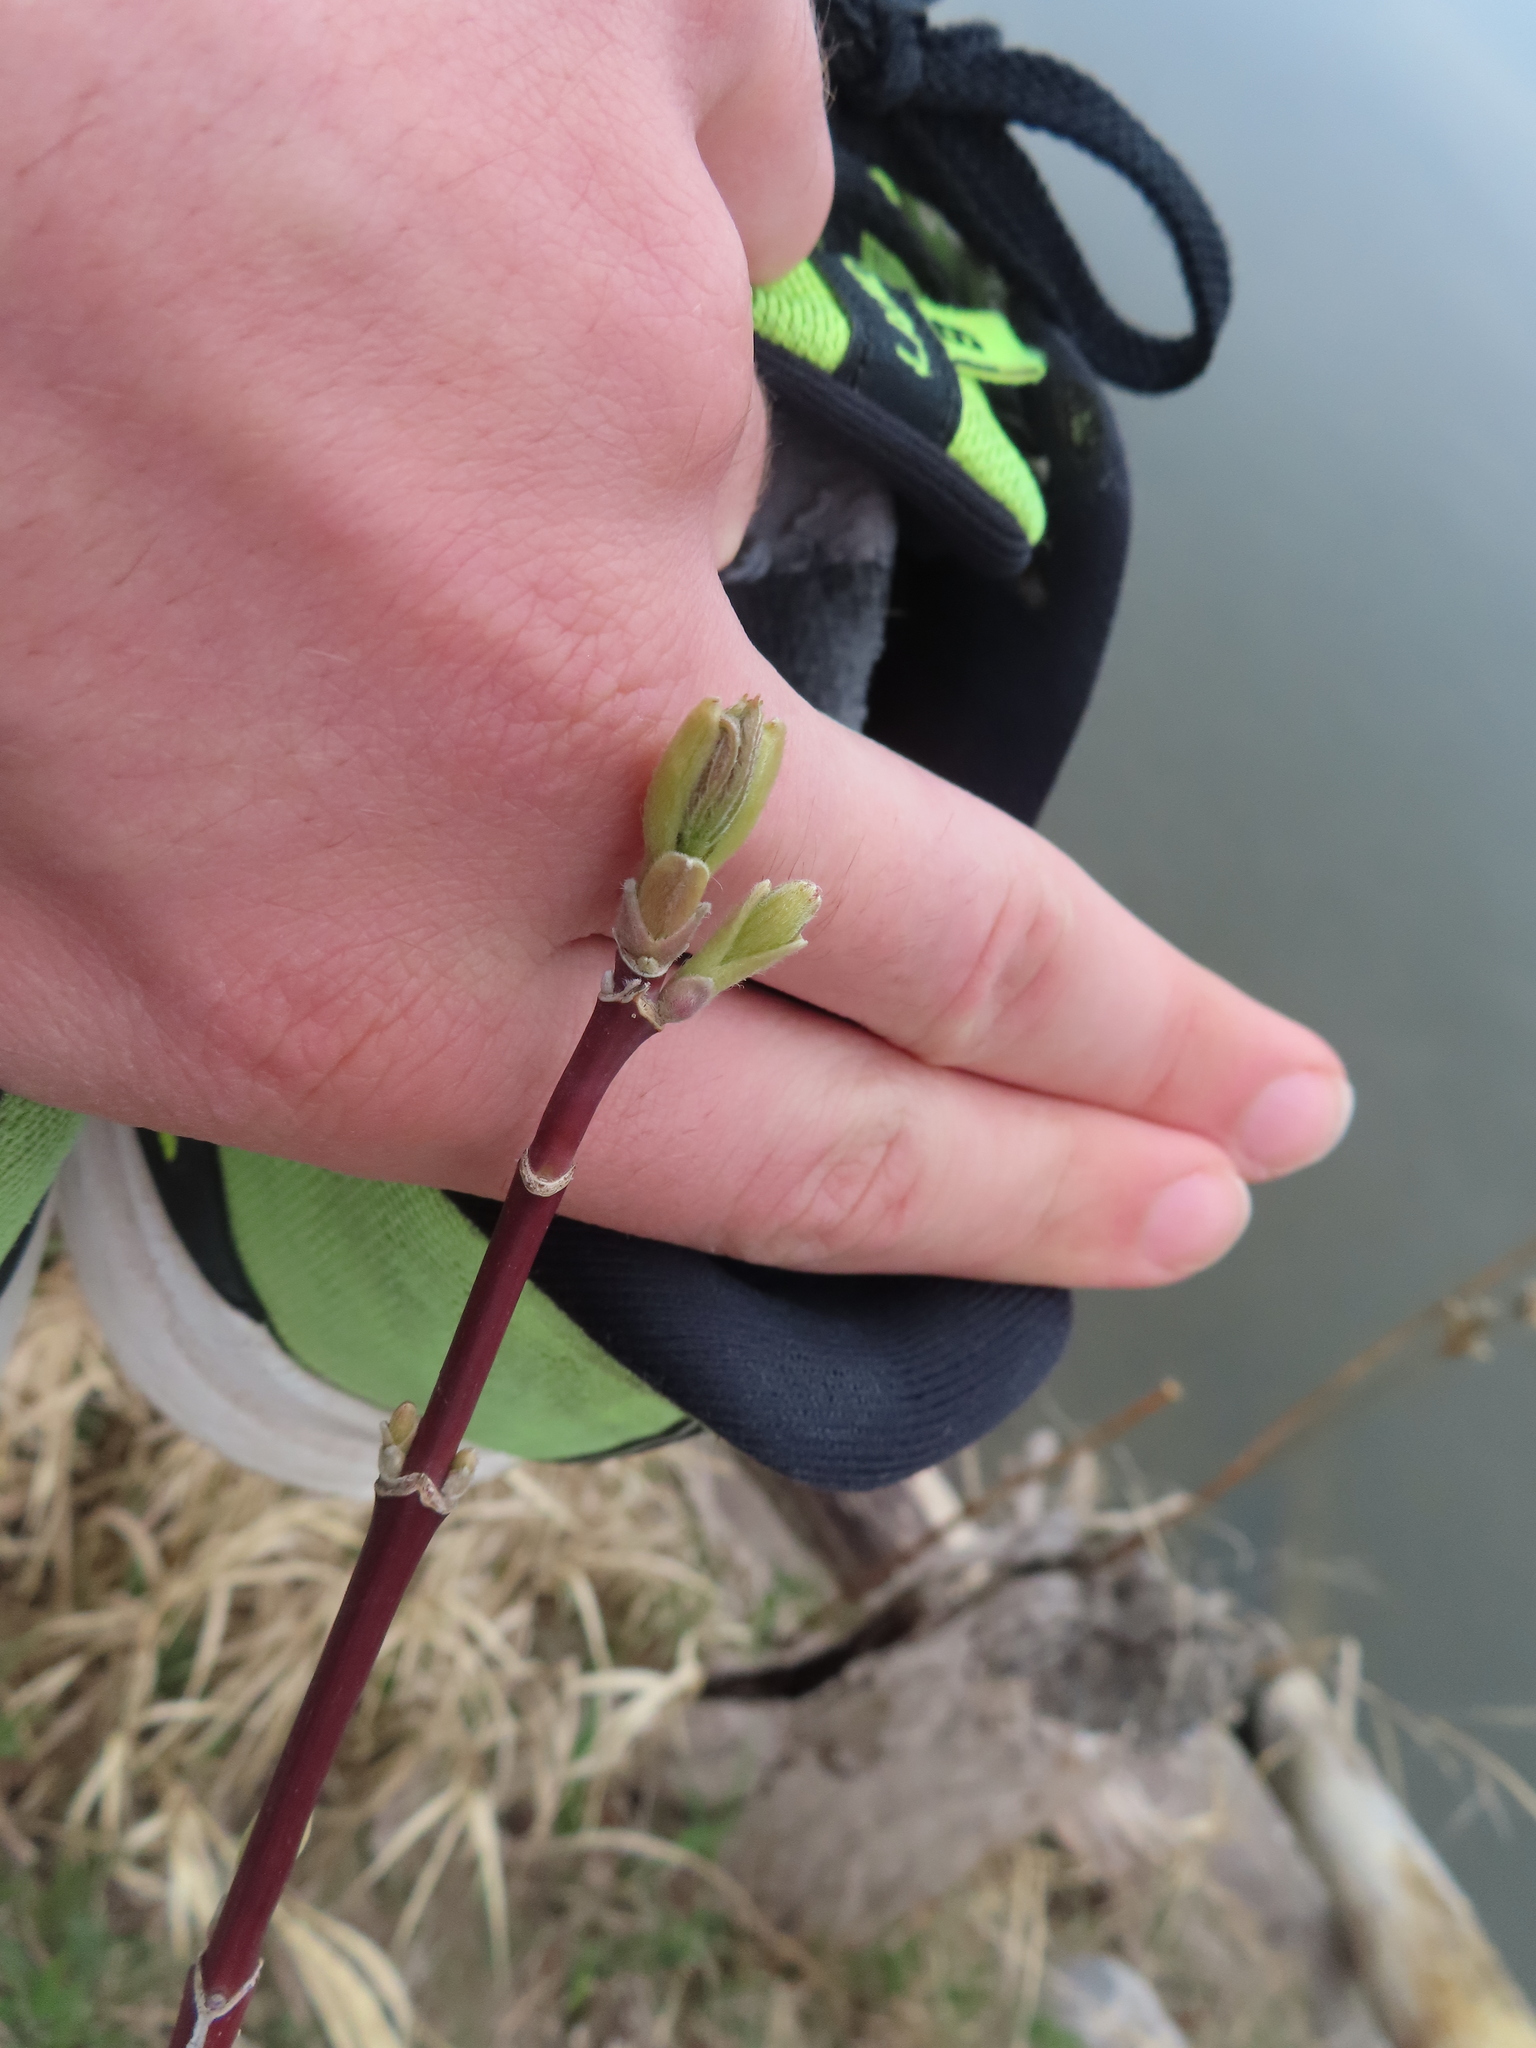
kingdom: Plantae
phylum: Tracheophyta
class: Magnoliopsida
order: Sapindales
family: Sapindaceae
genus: Acer
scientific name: Acer negundo
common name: Ashleaf maple
